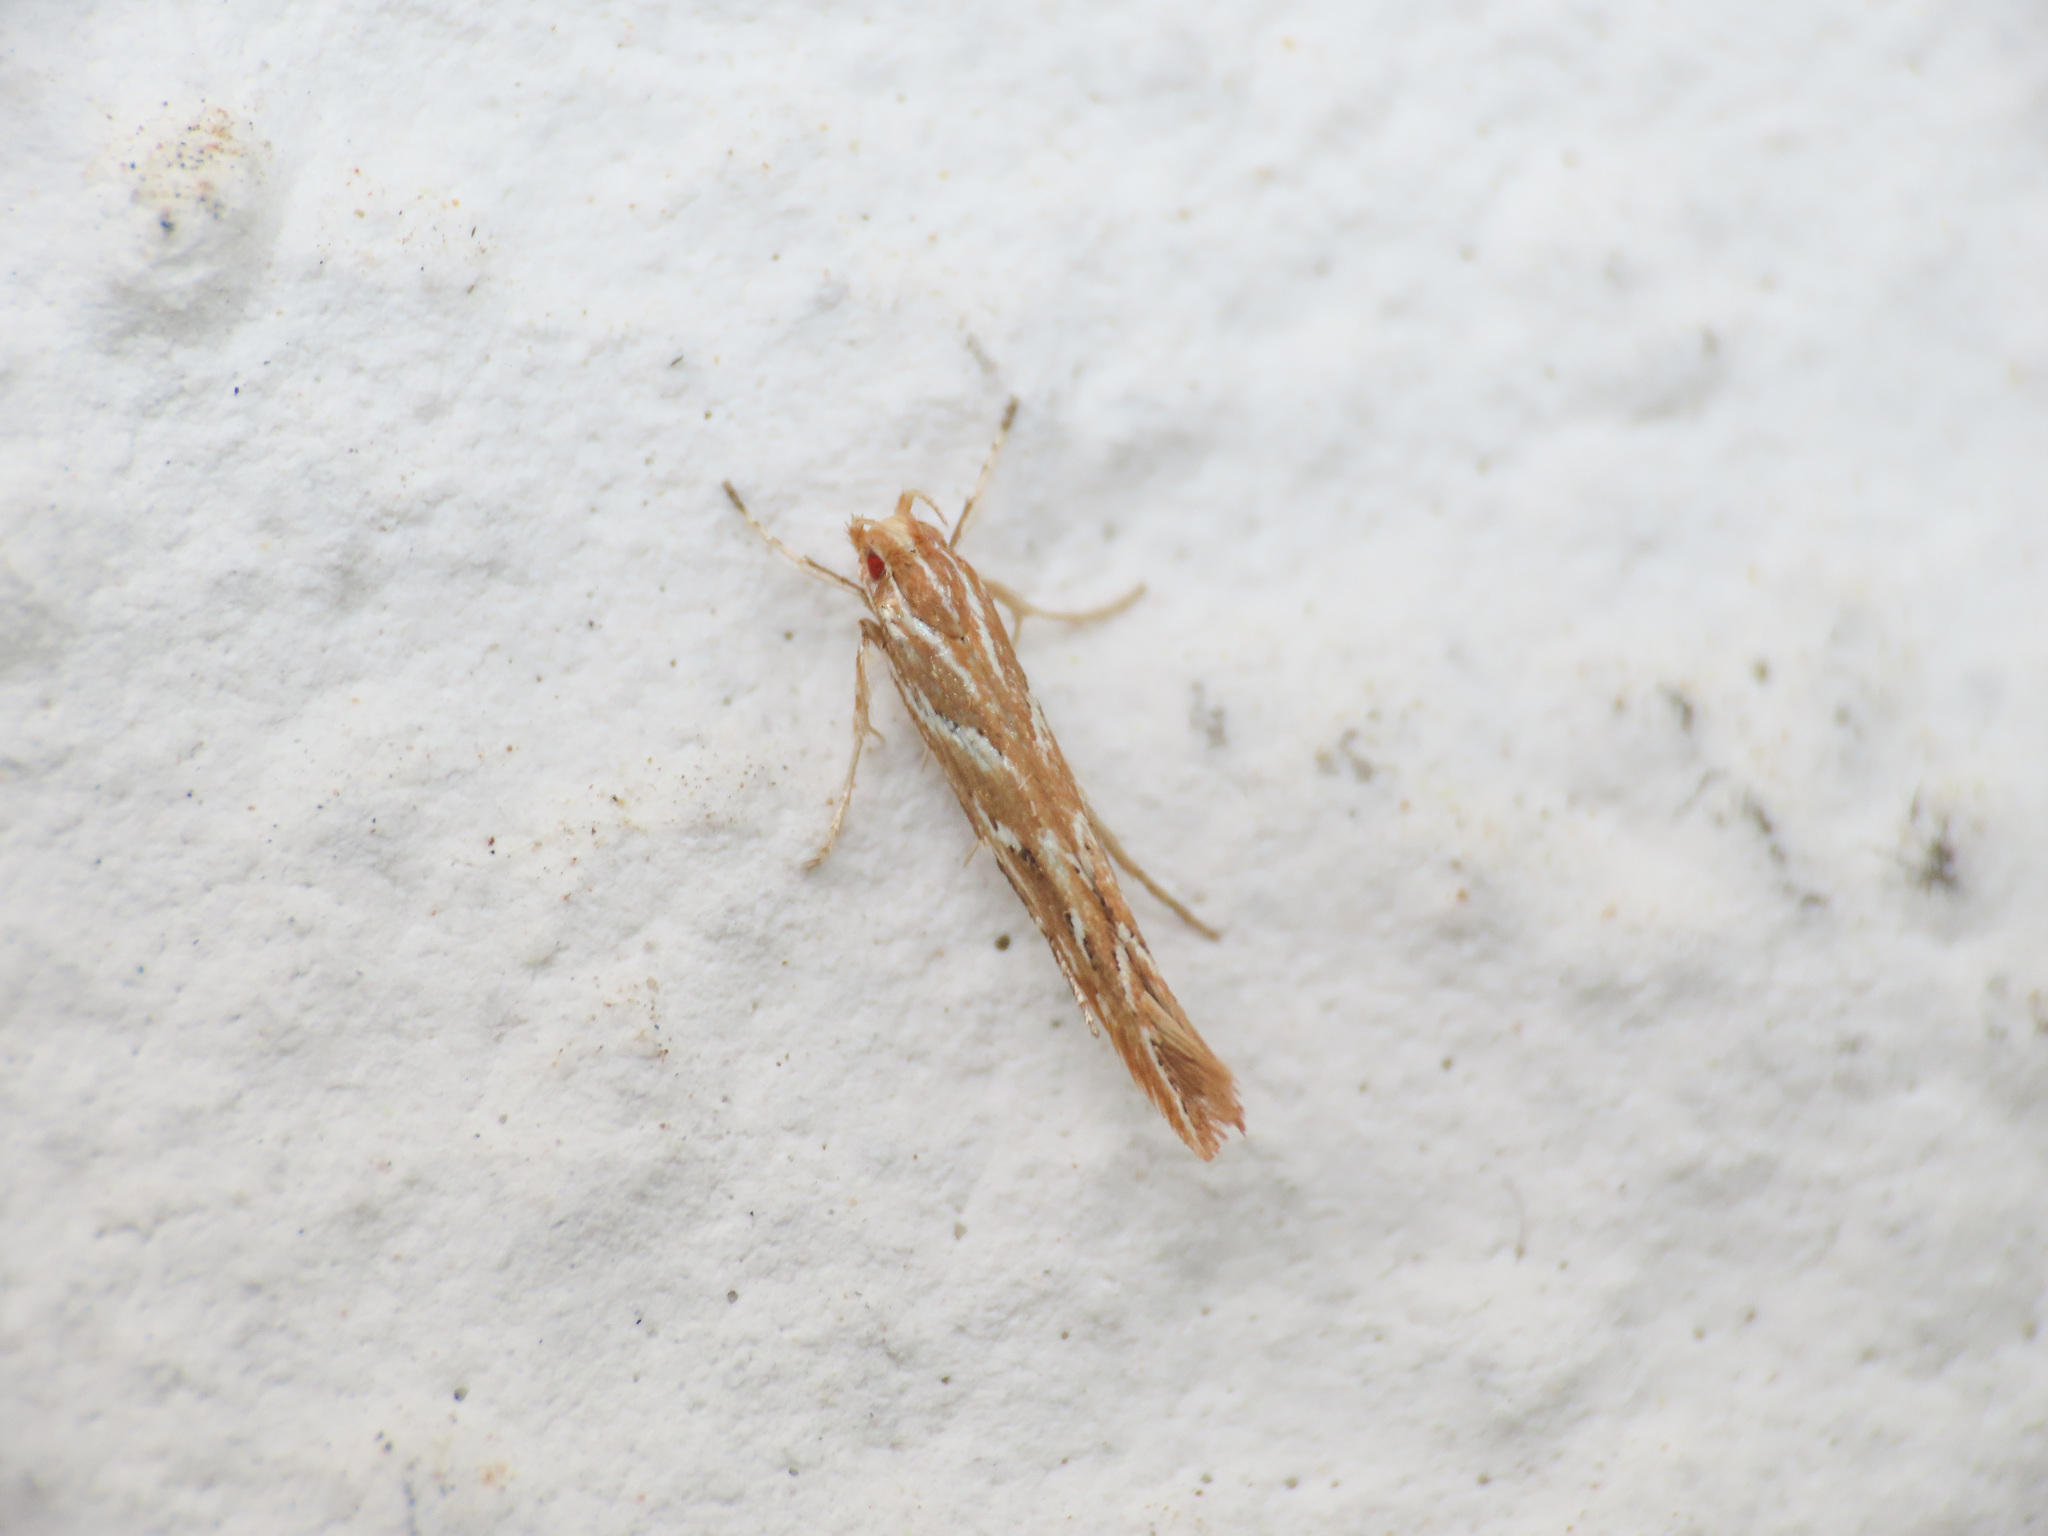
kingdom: Animalia
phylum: Arthropoda
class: Insecta
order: Lepidoptera
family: Cosmopterigidae
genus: Pyroderces
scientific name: Pyroderces argyrogrammos
